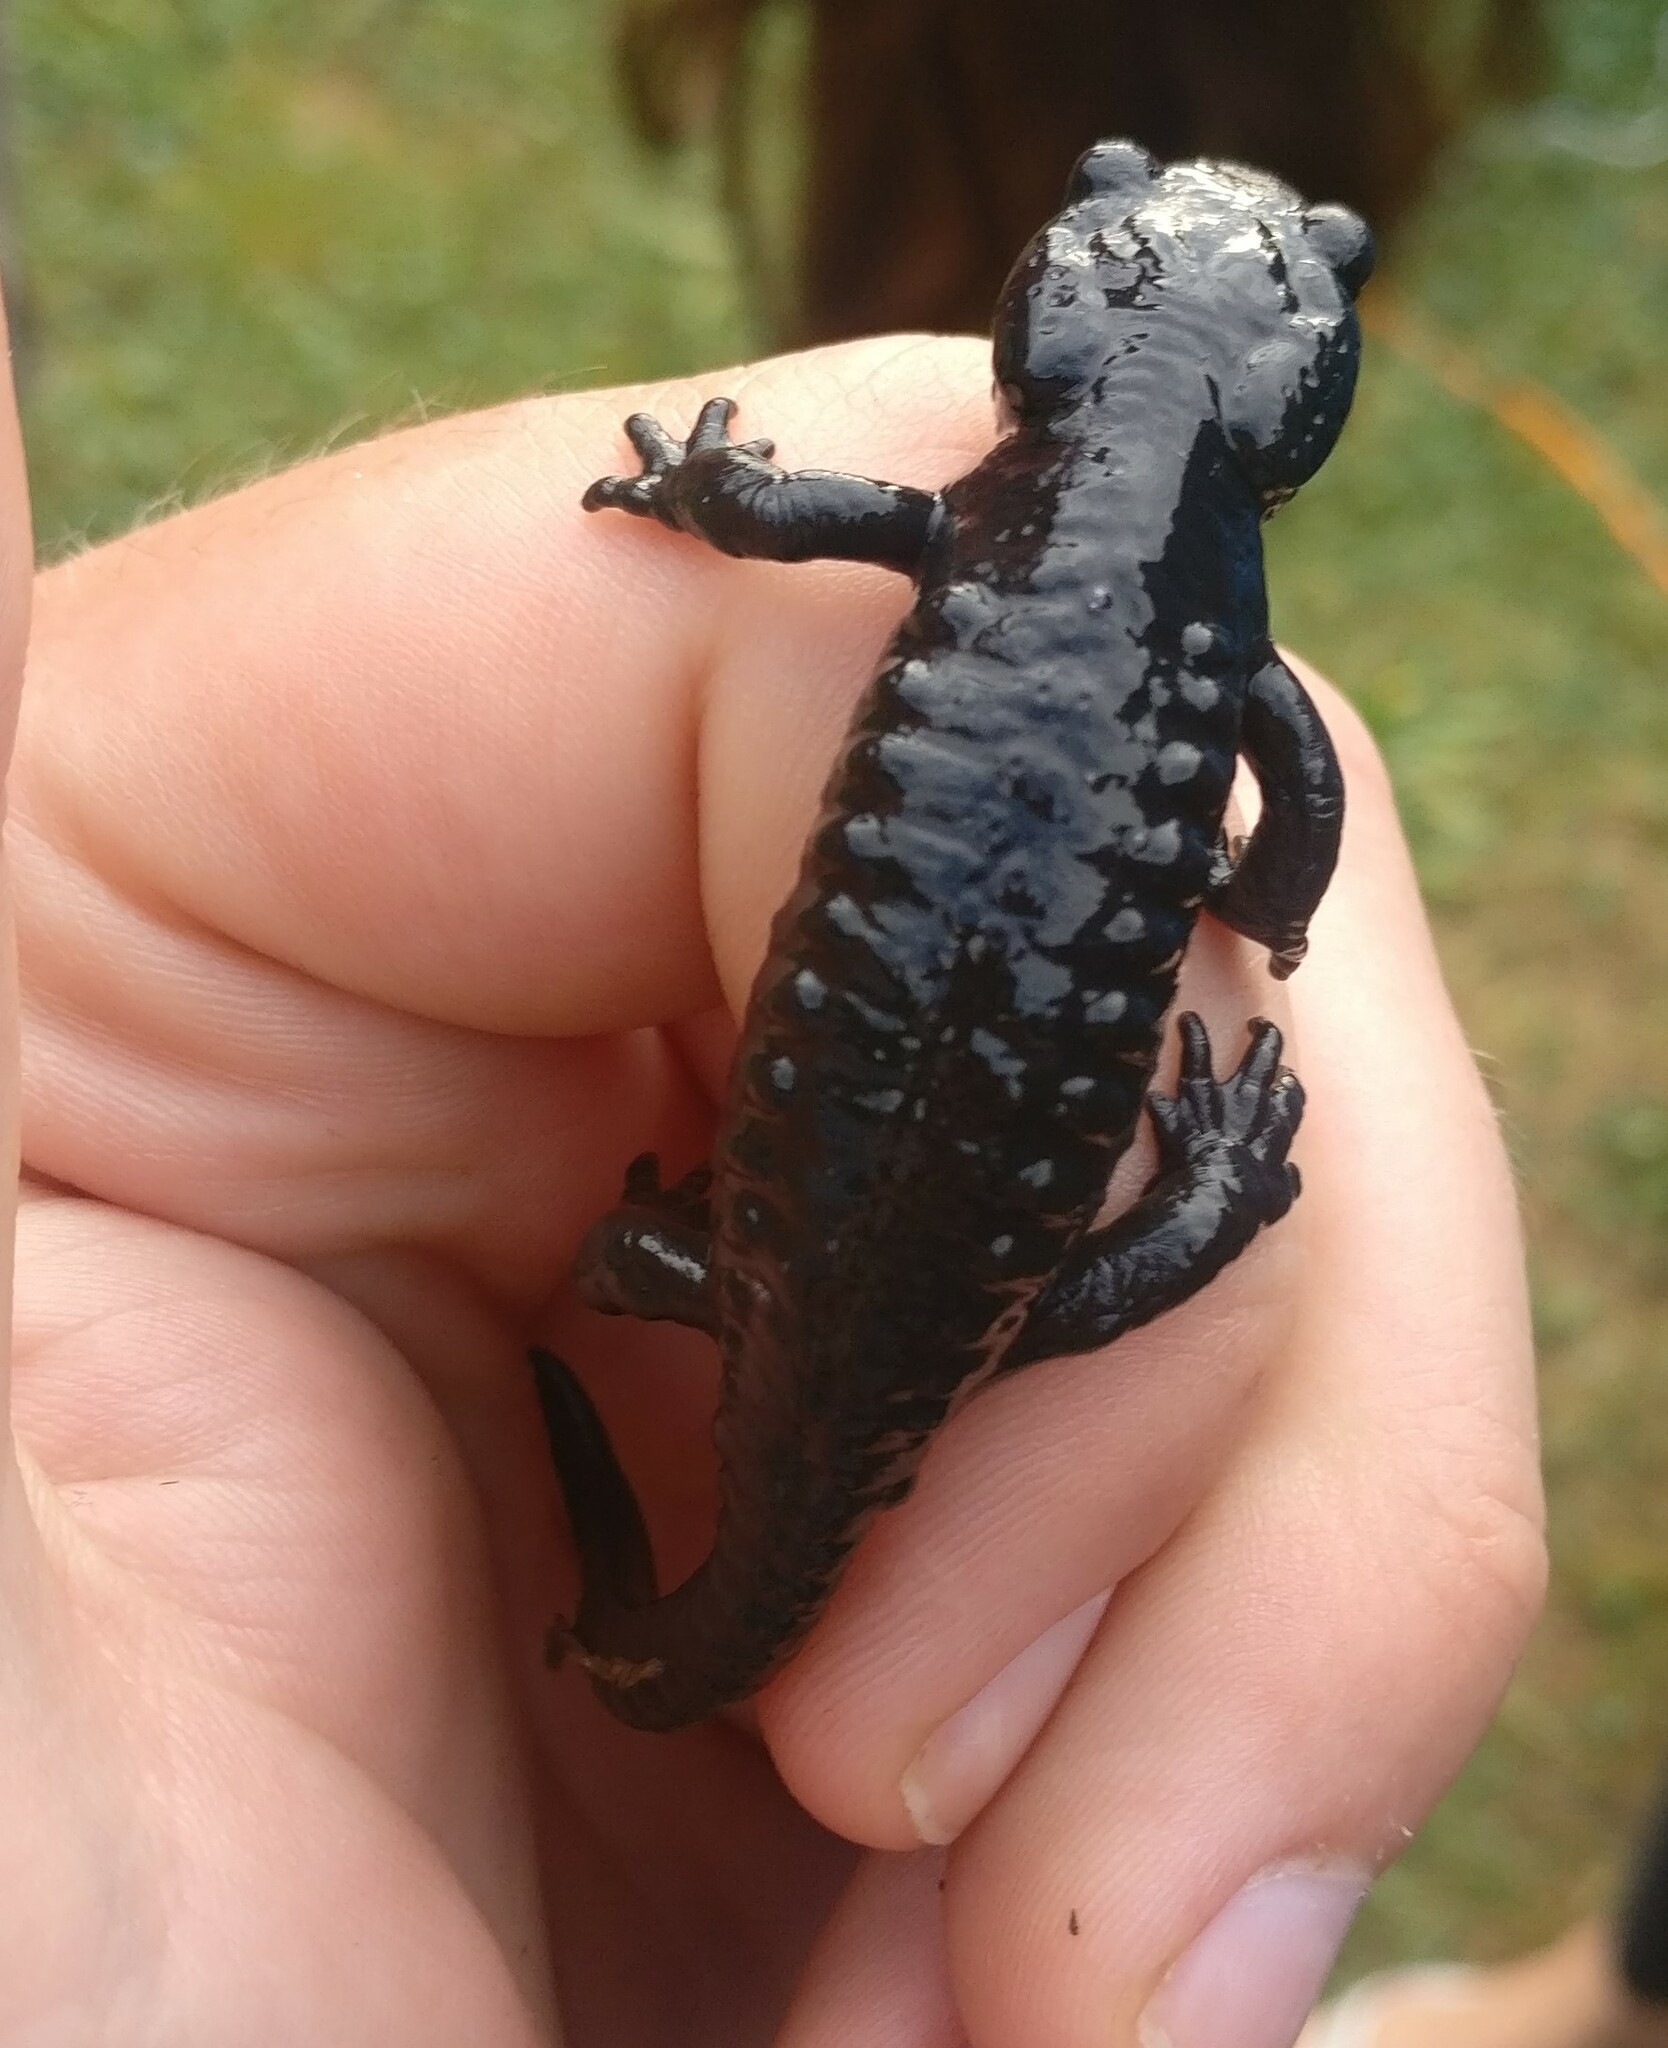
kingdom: Animalia
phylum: Chordata
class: Amphibia
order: Caudata
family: Salamandridae
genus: Salamandra
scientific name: Salamandra atra
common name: Alpine salamander
